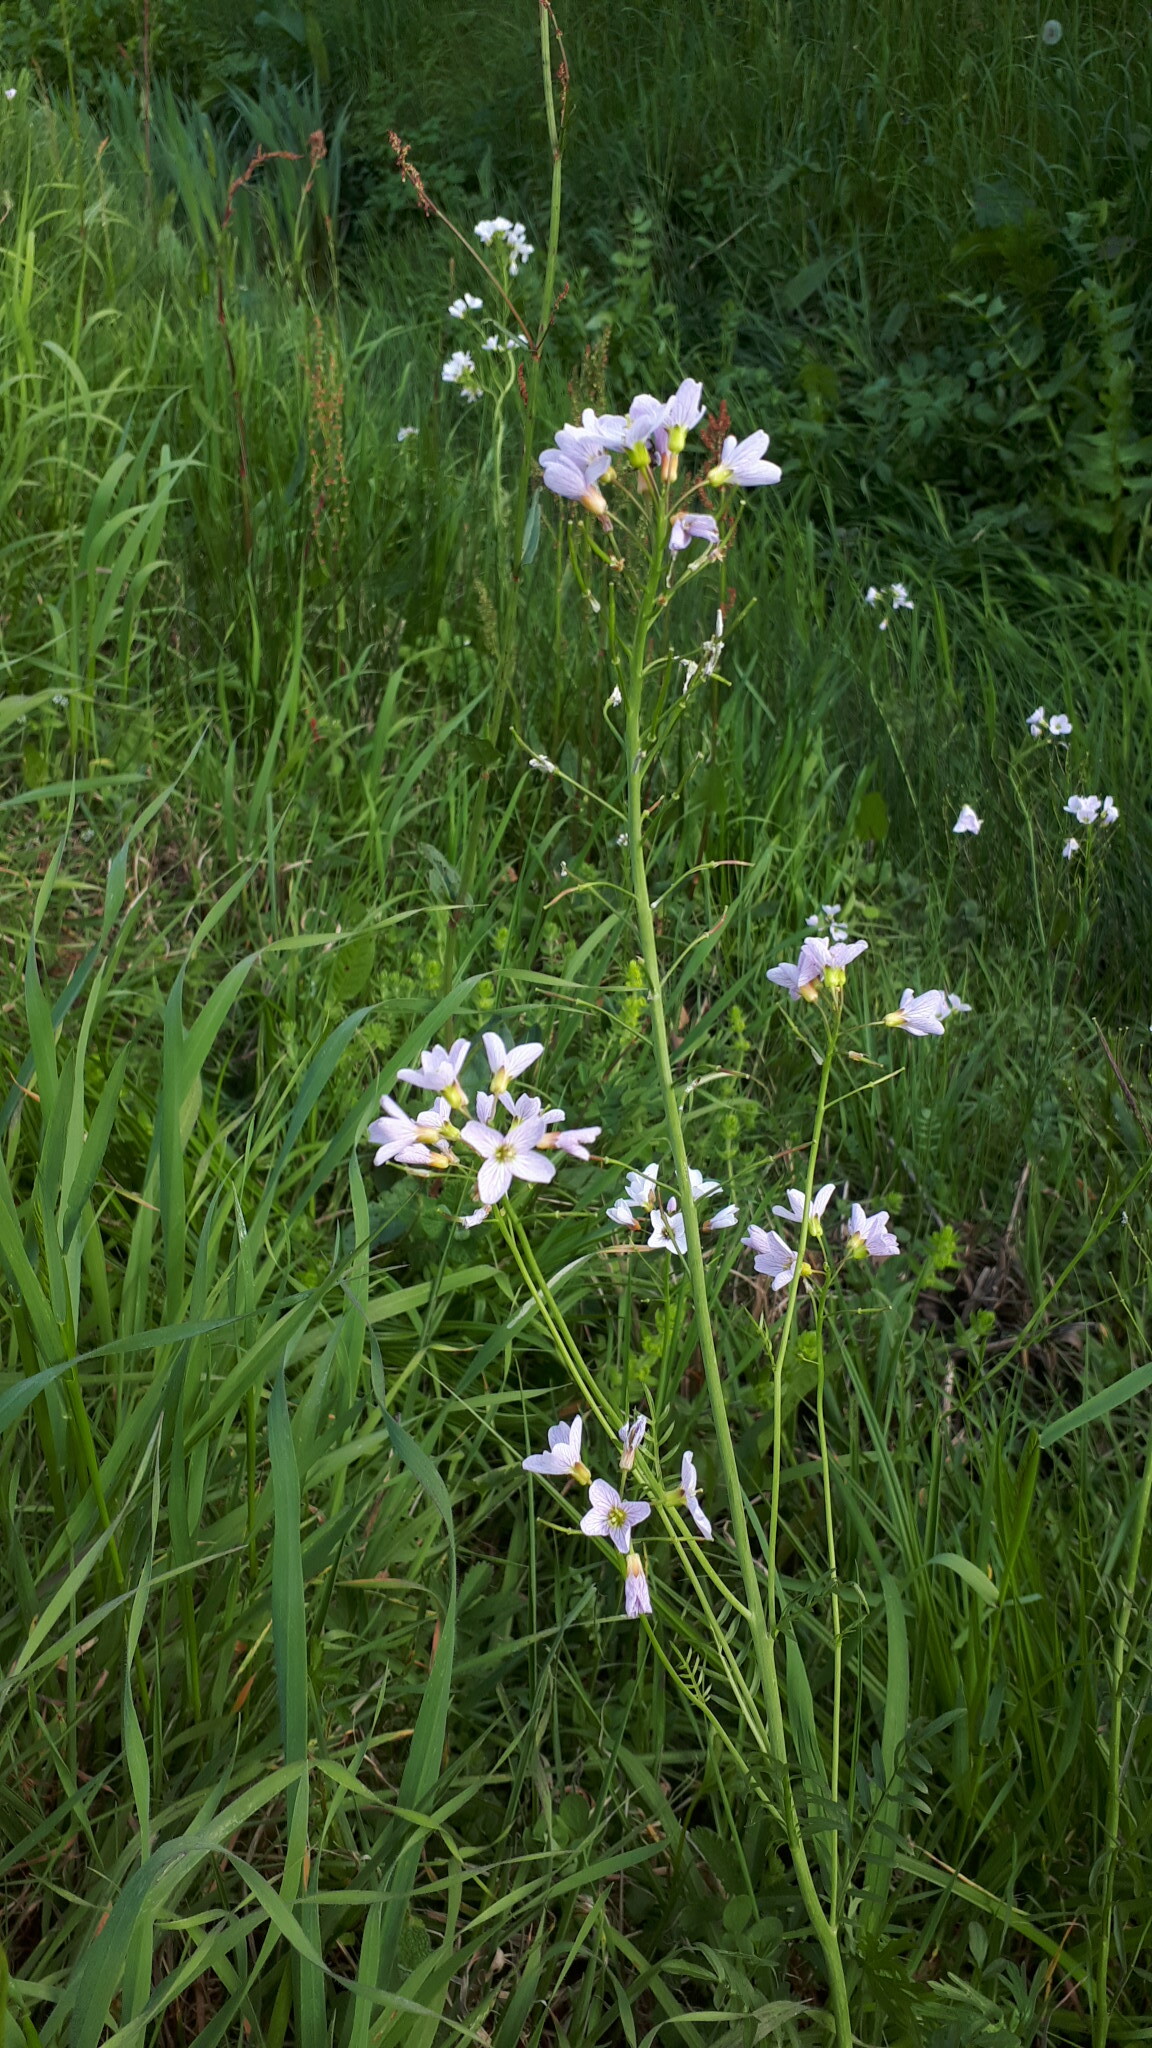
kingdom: Plantae
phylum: Tracheophyta
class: Magnoliopsida
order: Brassicales
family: Brassicaceae
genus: Cardamine
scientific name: Cardamine pratensis
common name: Cuckoo flower
